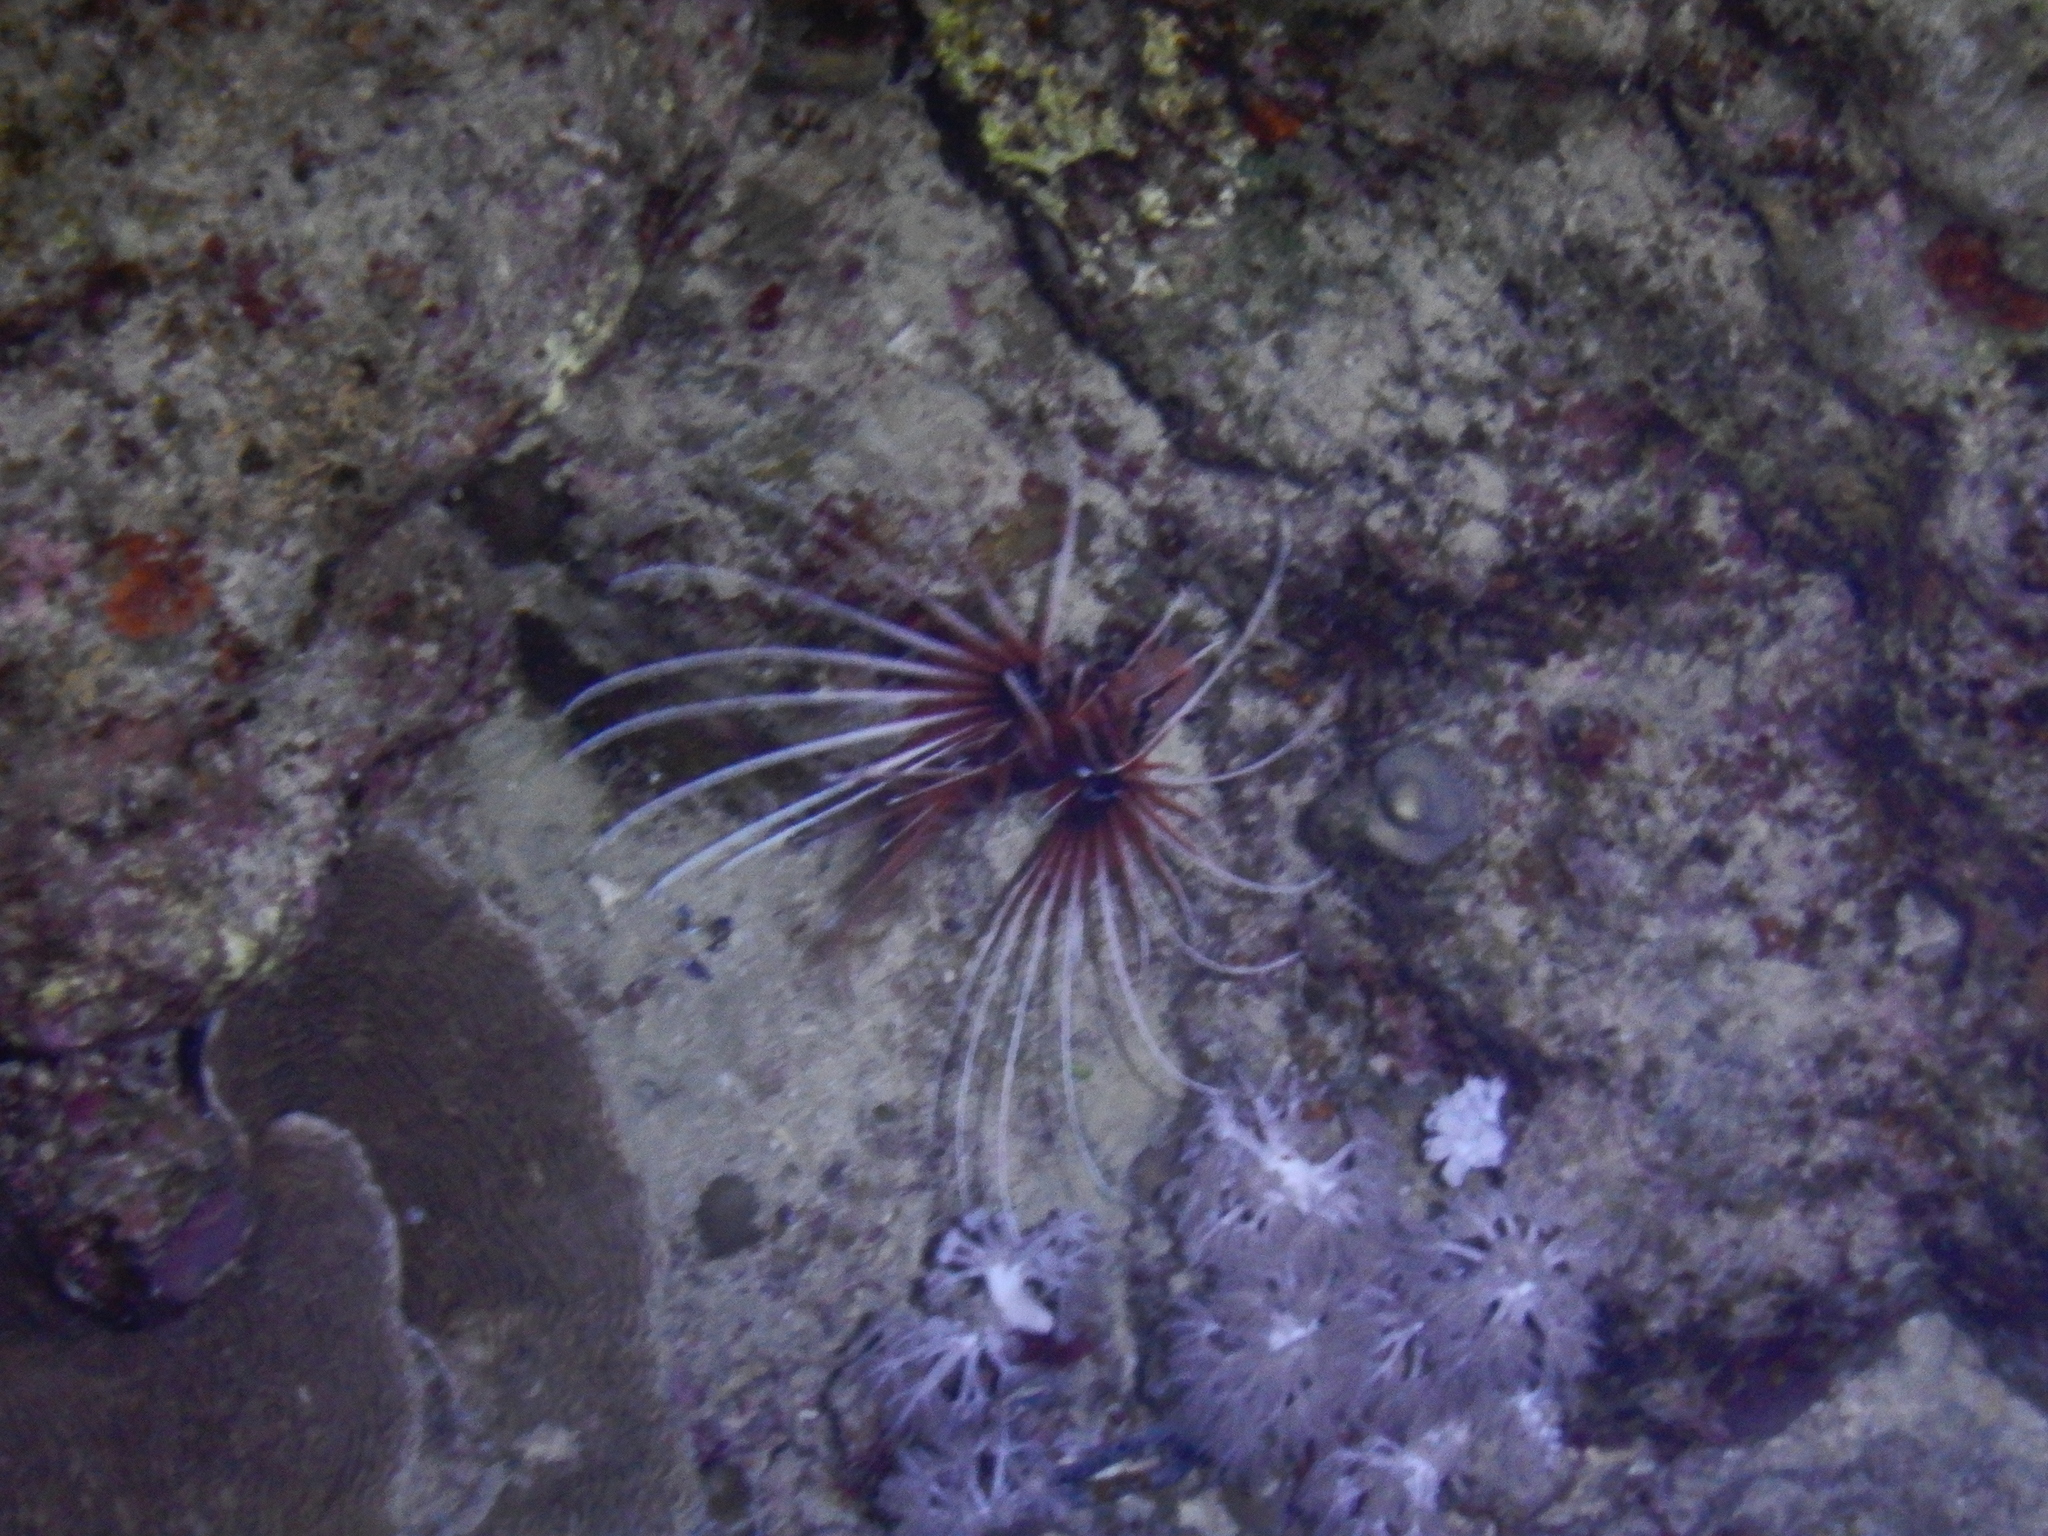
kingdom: Animalia
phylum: Chordata
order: Scorpaeniformes
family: Scorpaenidae
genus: Pterois
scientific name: Pterois cincta
